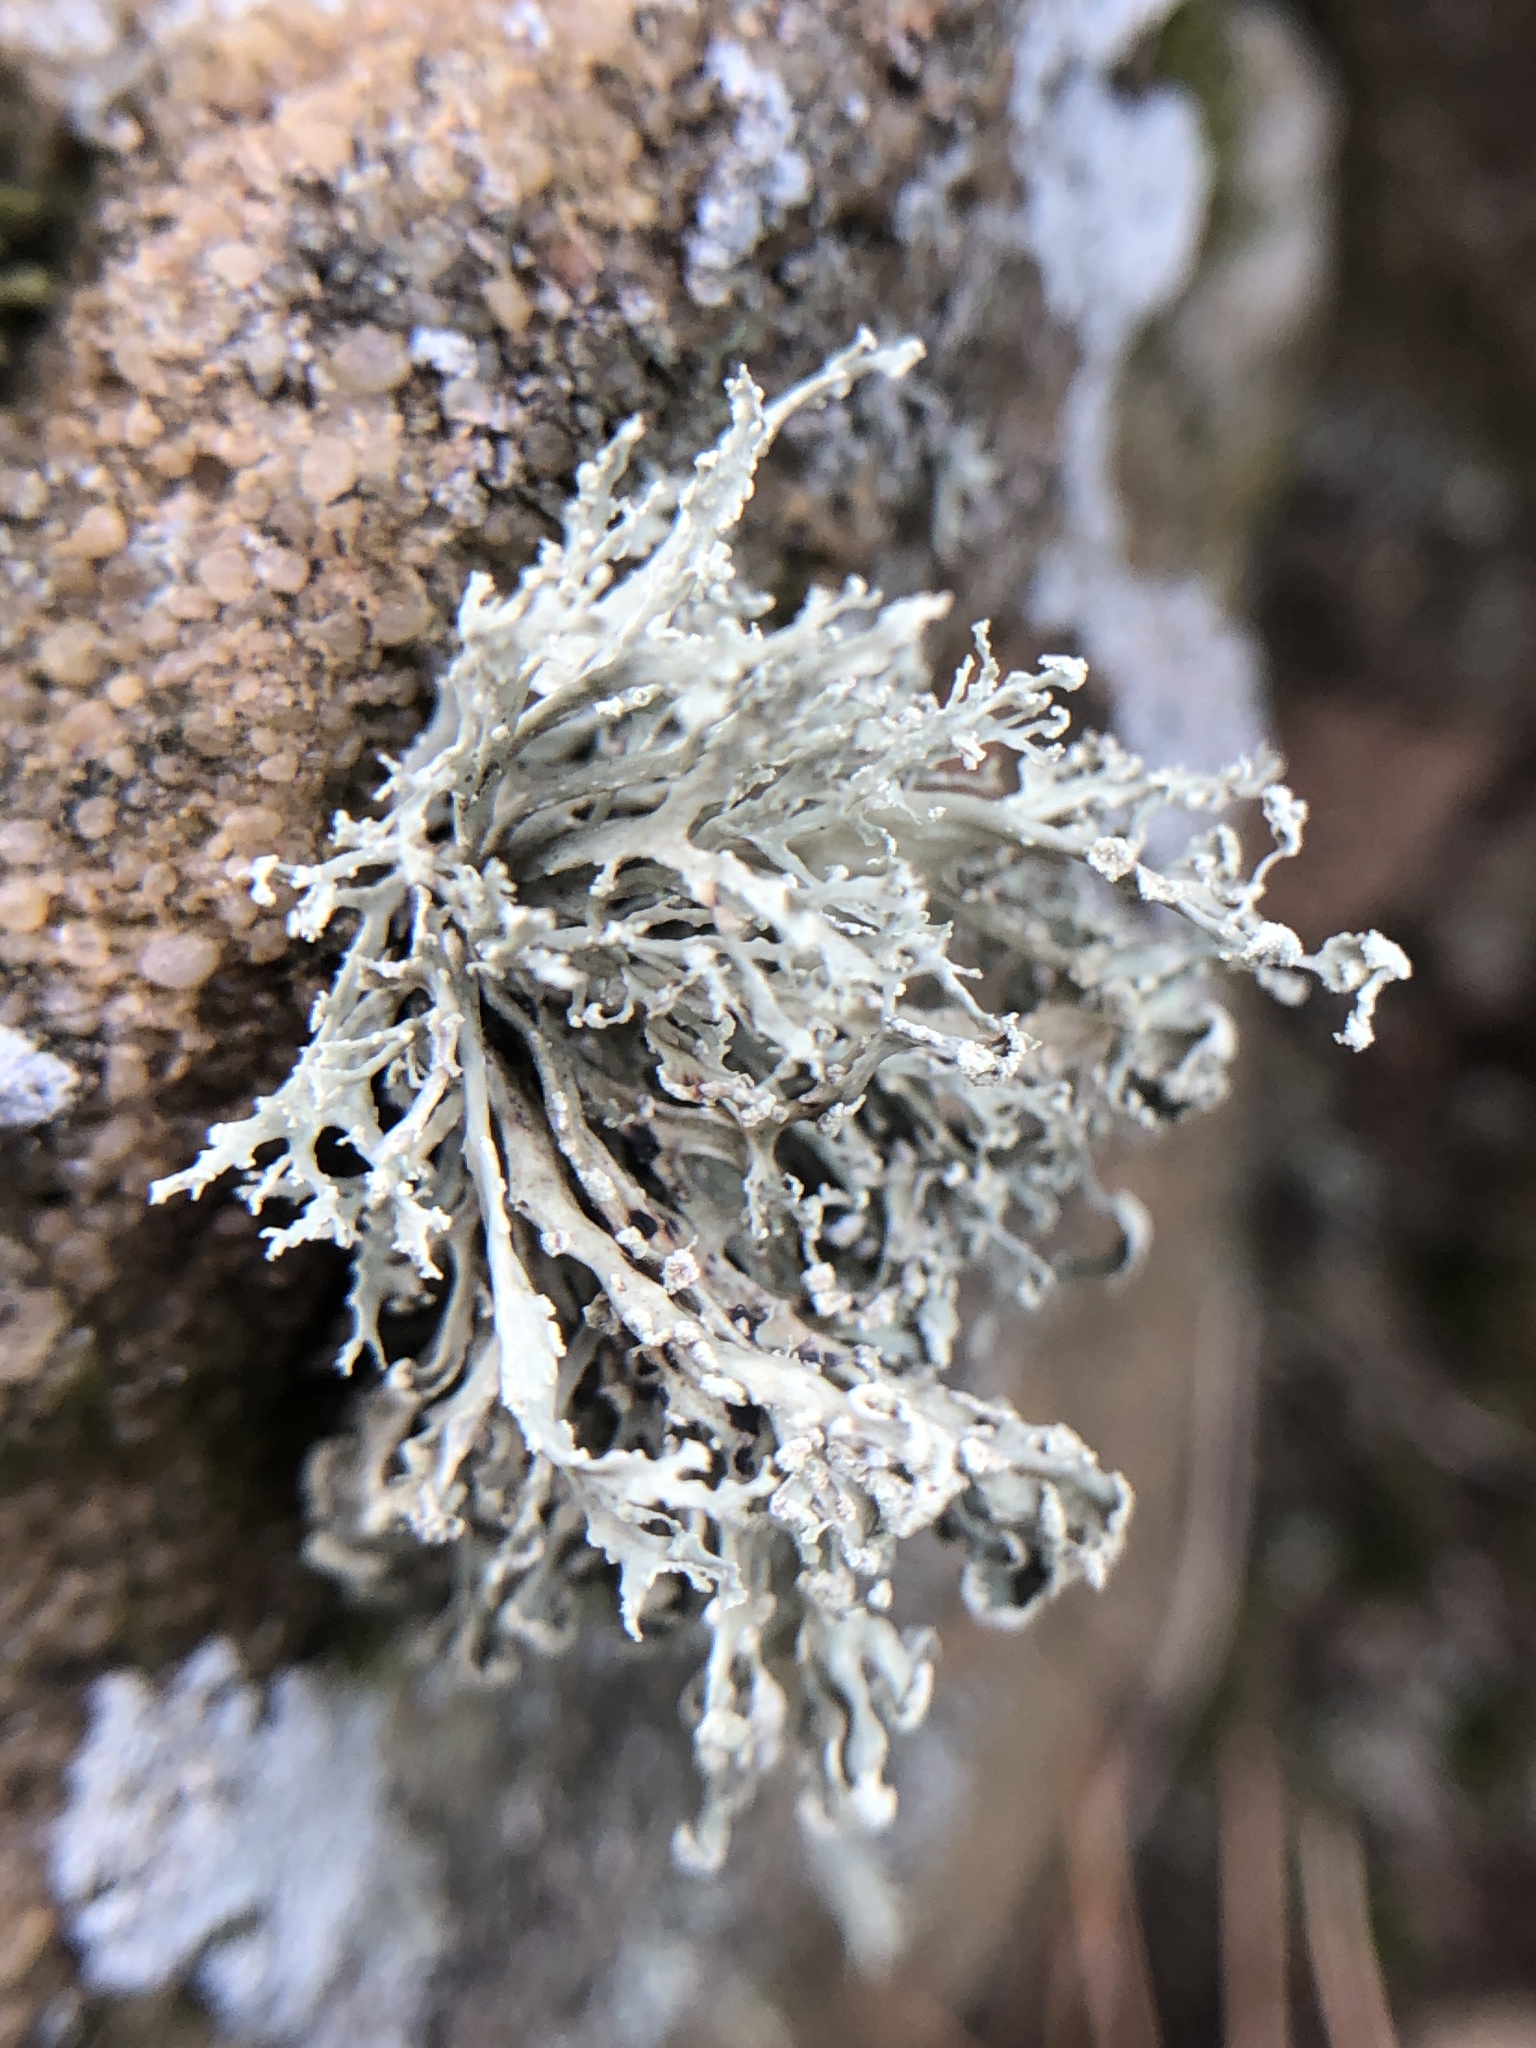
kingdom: Fungi
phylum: Ascomycota
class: Lecanoromycetes
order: Lecanorales
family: Ramalinaceae
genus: Ramalina
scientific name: Ramalina intermedia
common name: Rock bushy lichen
